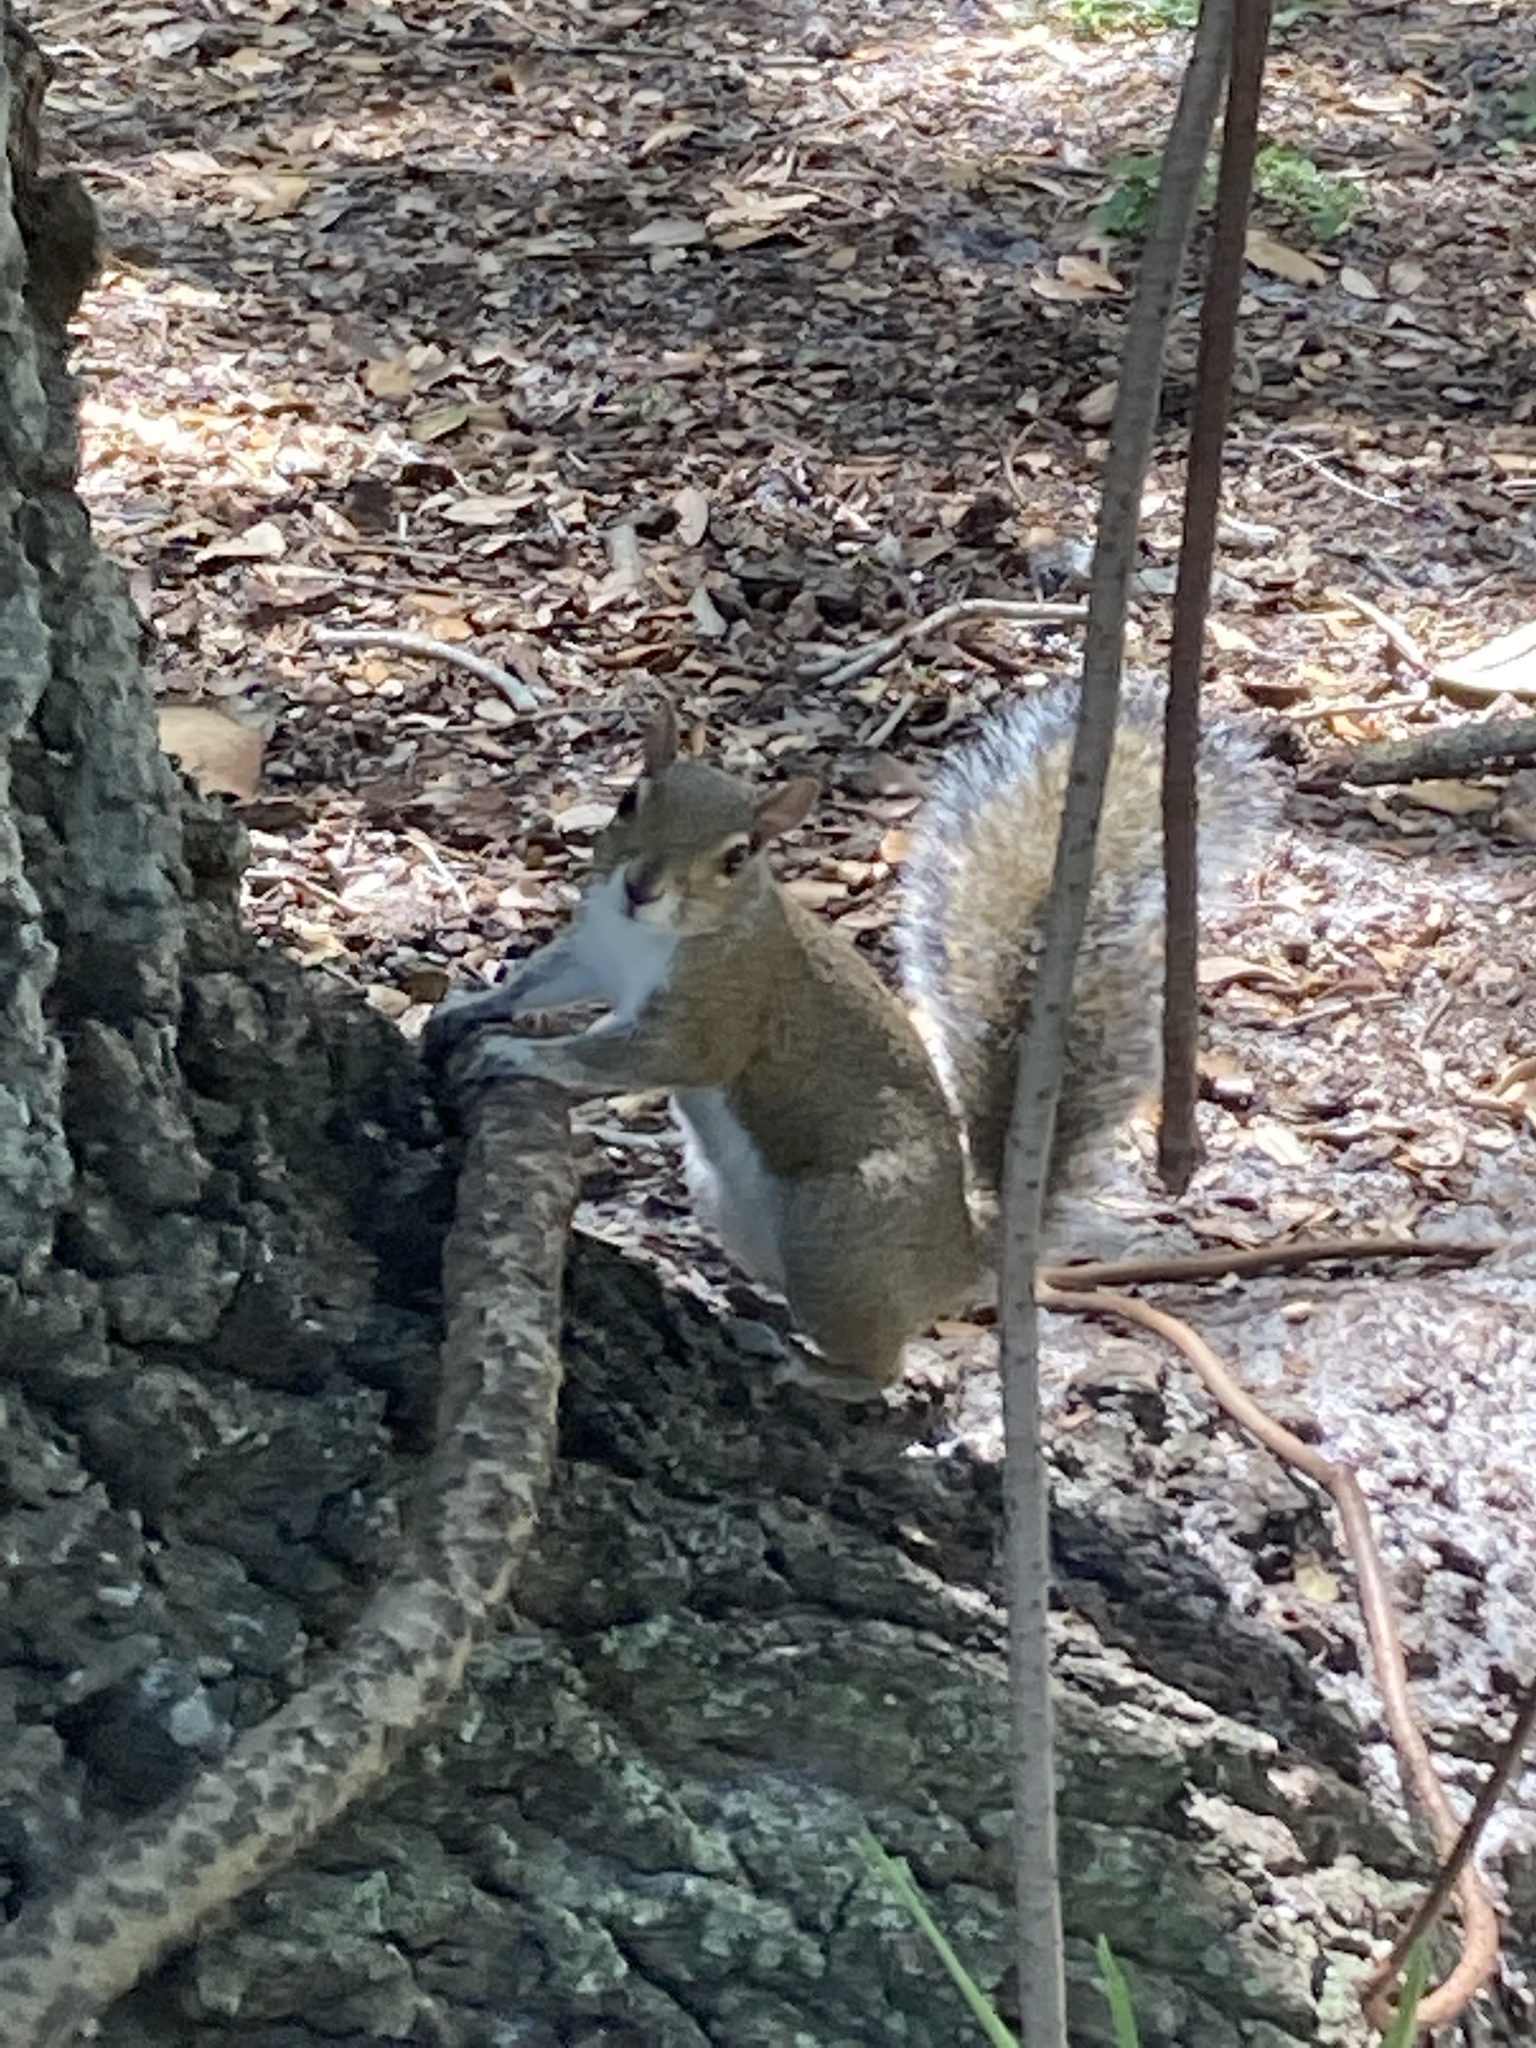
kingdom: Animalia
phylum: Chordata
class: Mammalia
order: Rodentia
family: Sciuridae
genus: Sciurus
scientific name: Sciurus carolinensis
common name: Eastern gray squirrel
